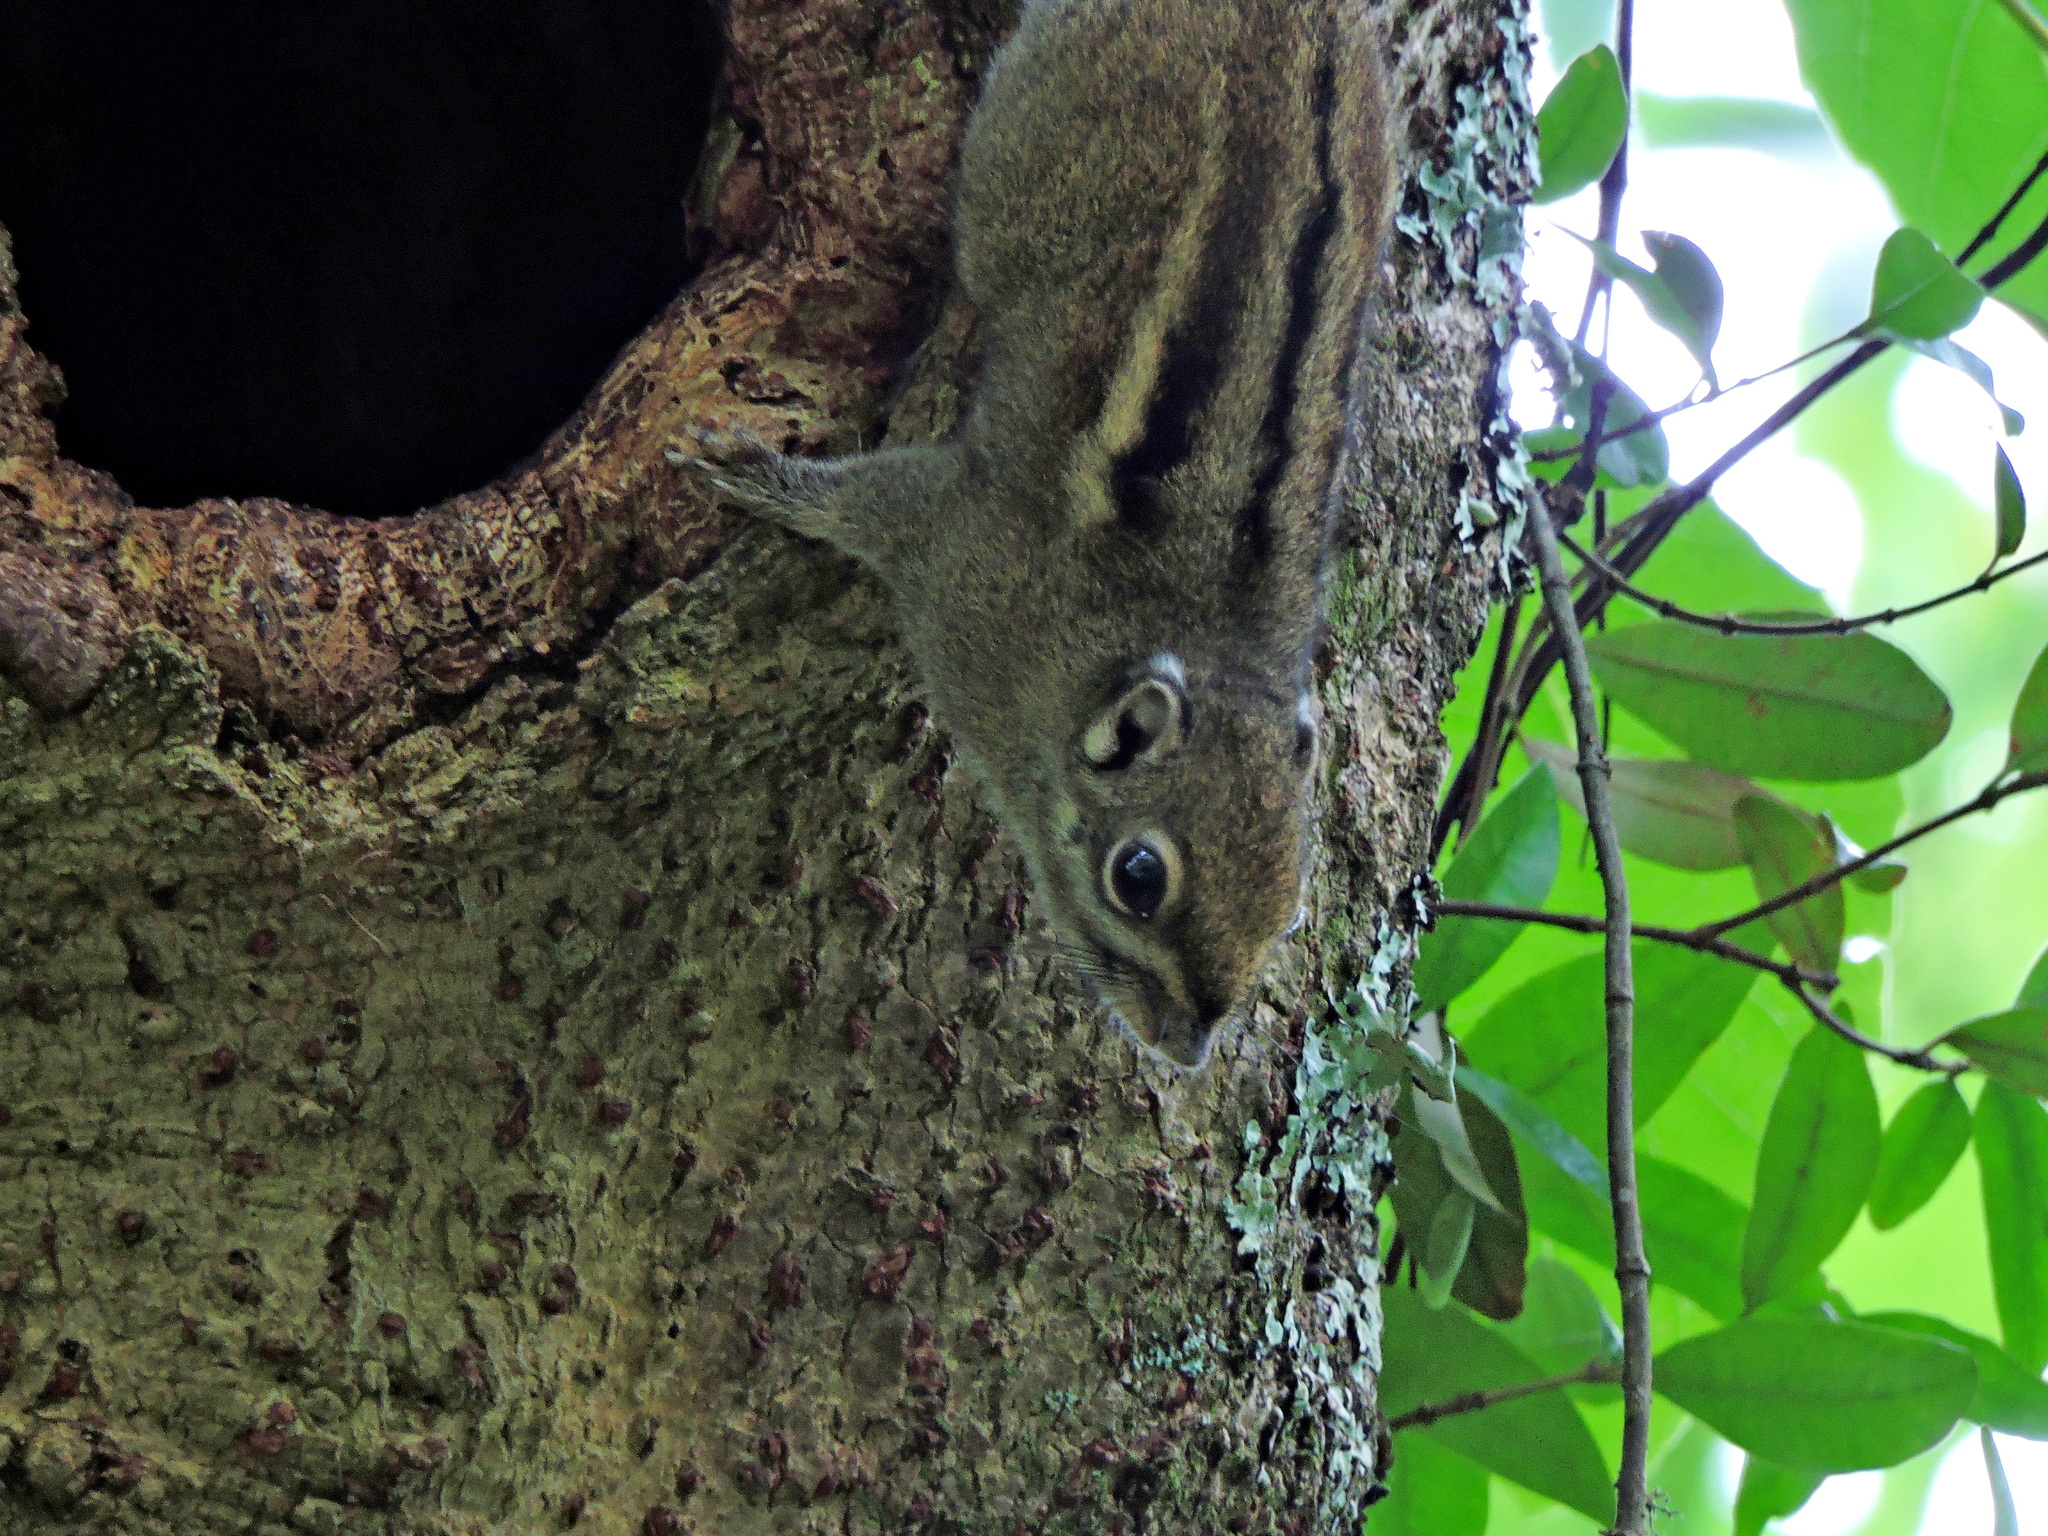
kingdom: Animalia
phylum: Chordata
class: Mammalia
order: Rodentia
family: Sciuridae
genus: Tamiops
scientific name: Tamiops maritimus
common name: Maritime striped squirrel
